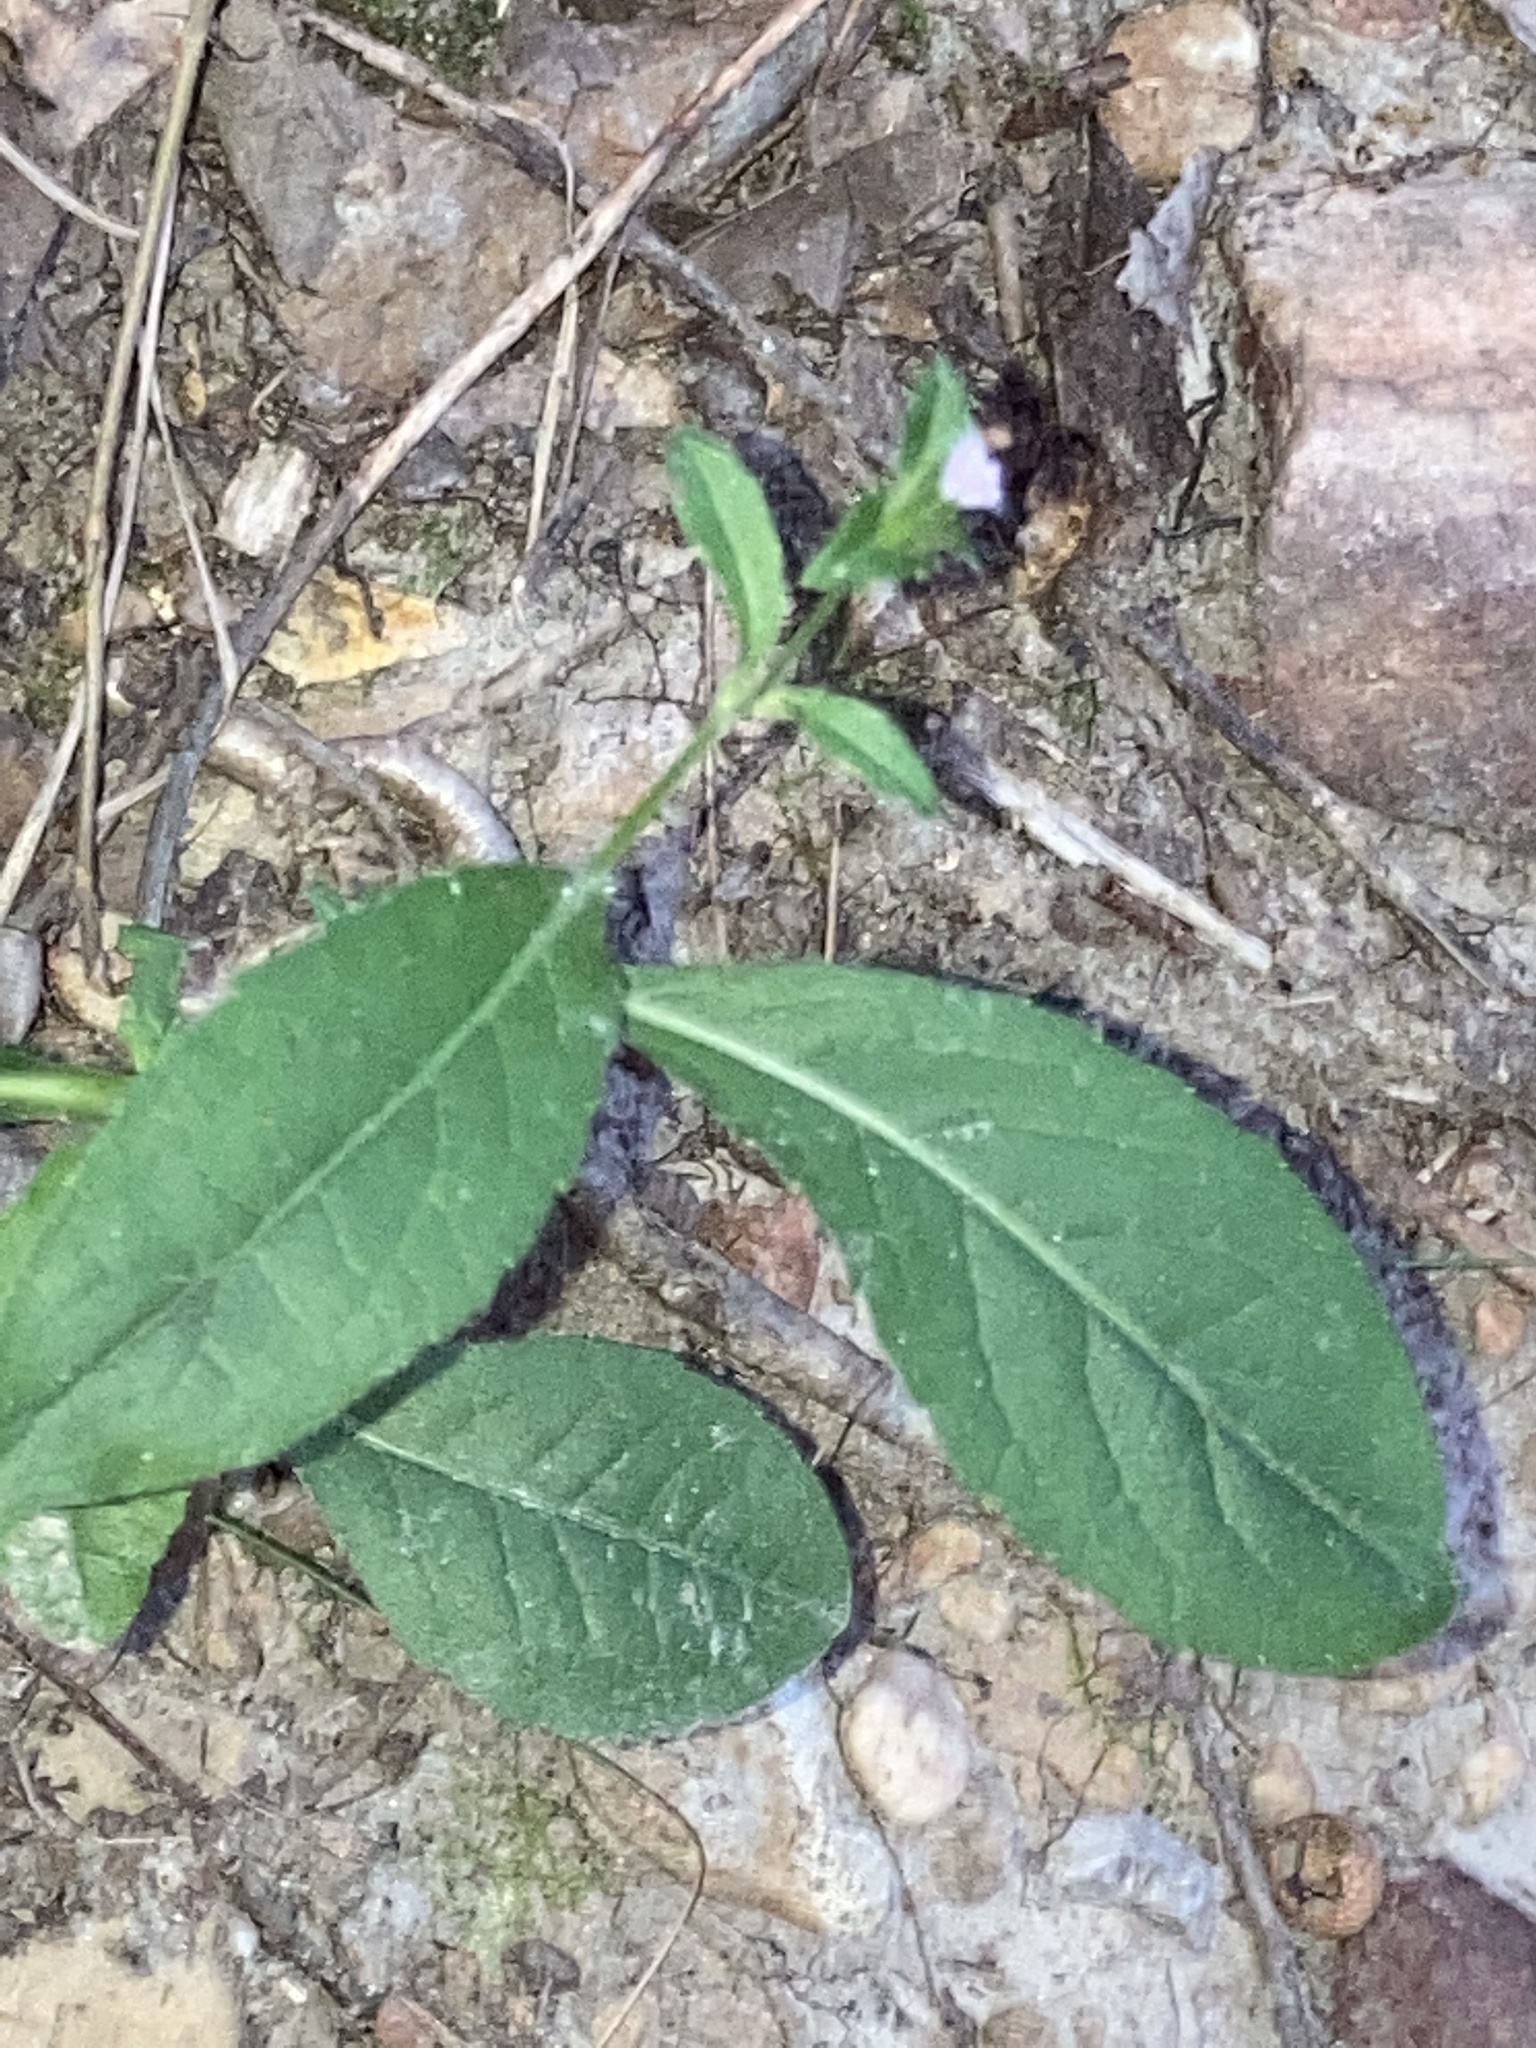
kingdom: Plantae
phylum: Tracheophyta
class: Magnoliopsida
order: Asterales
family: Asteraceae
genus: Elephantopus
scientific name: Elephantopus carolinianus
